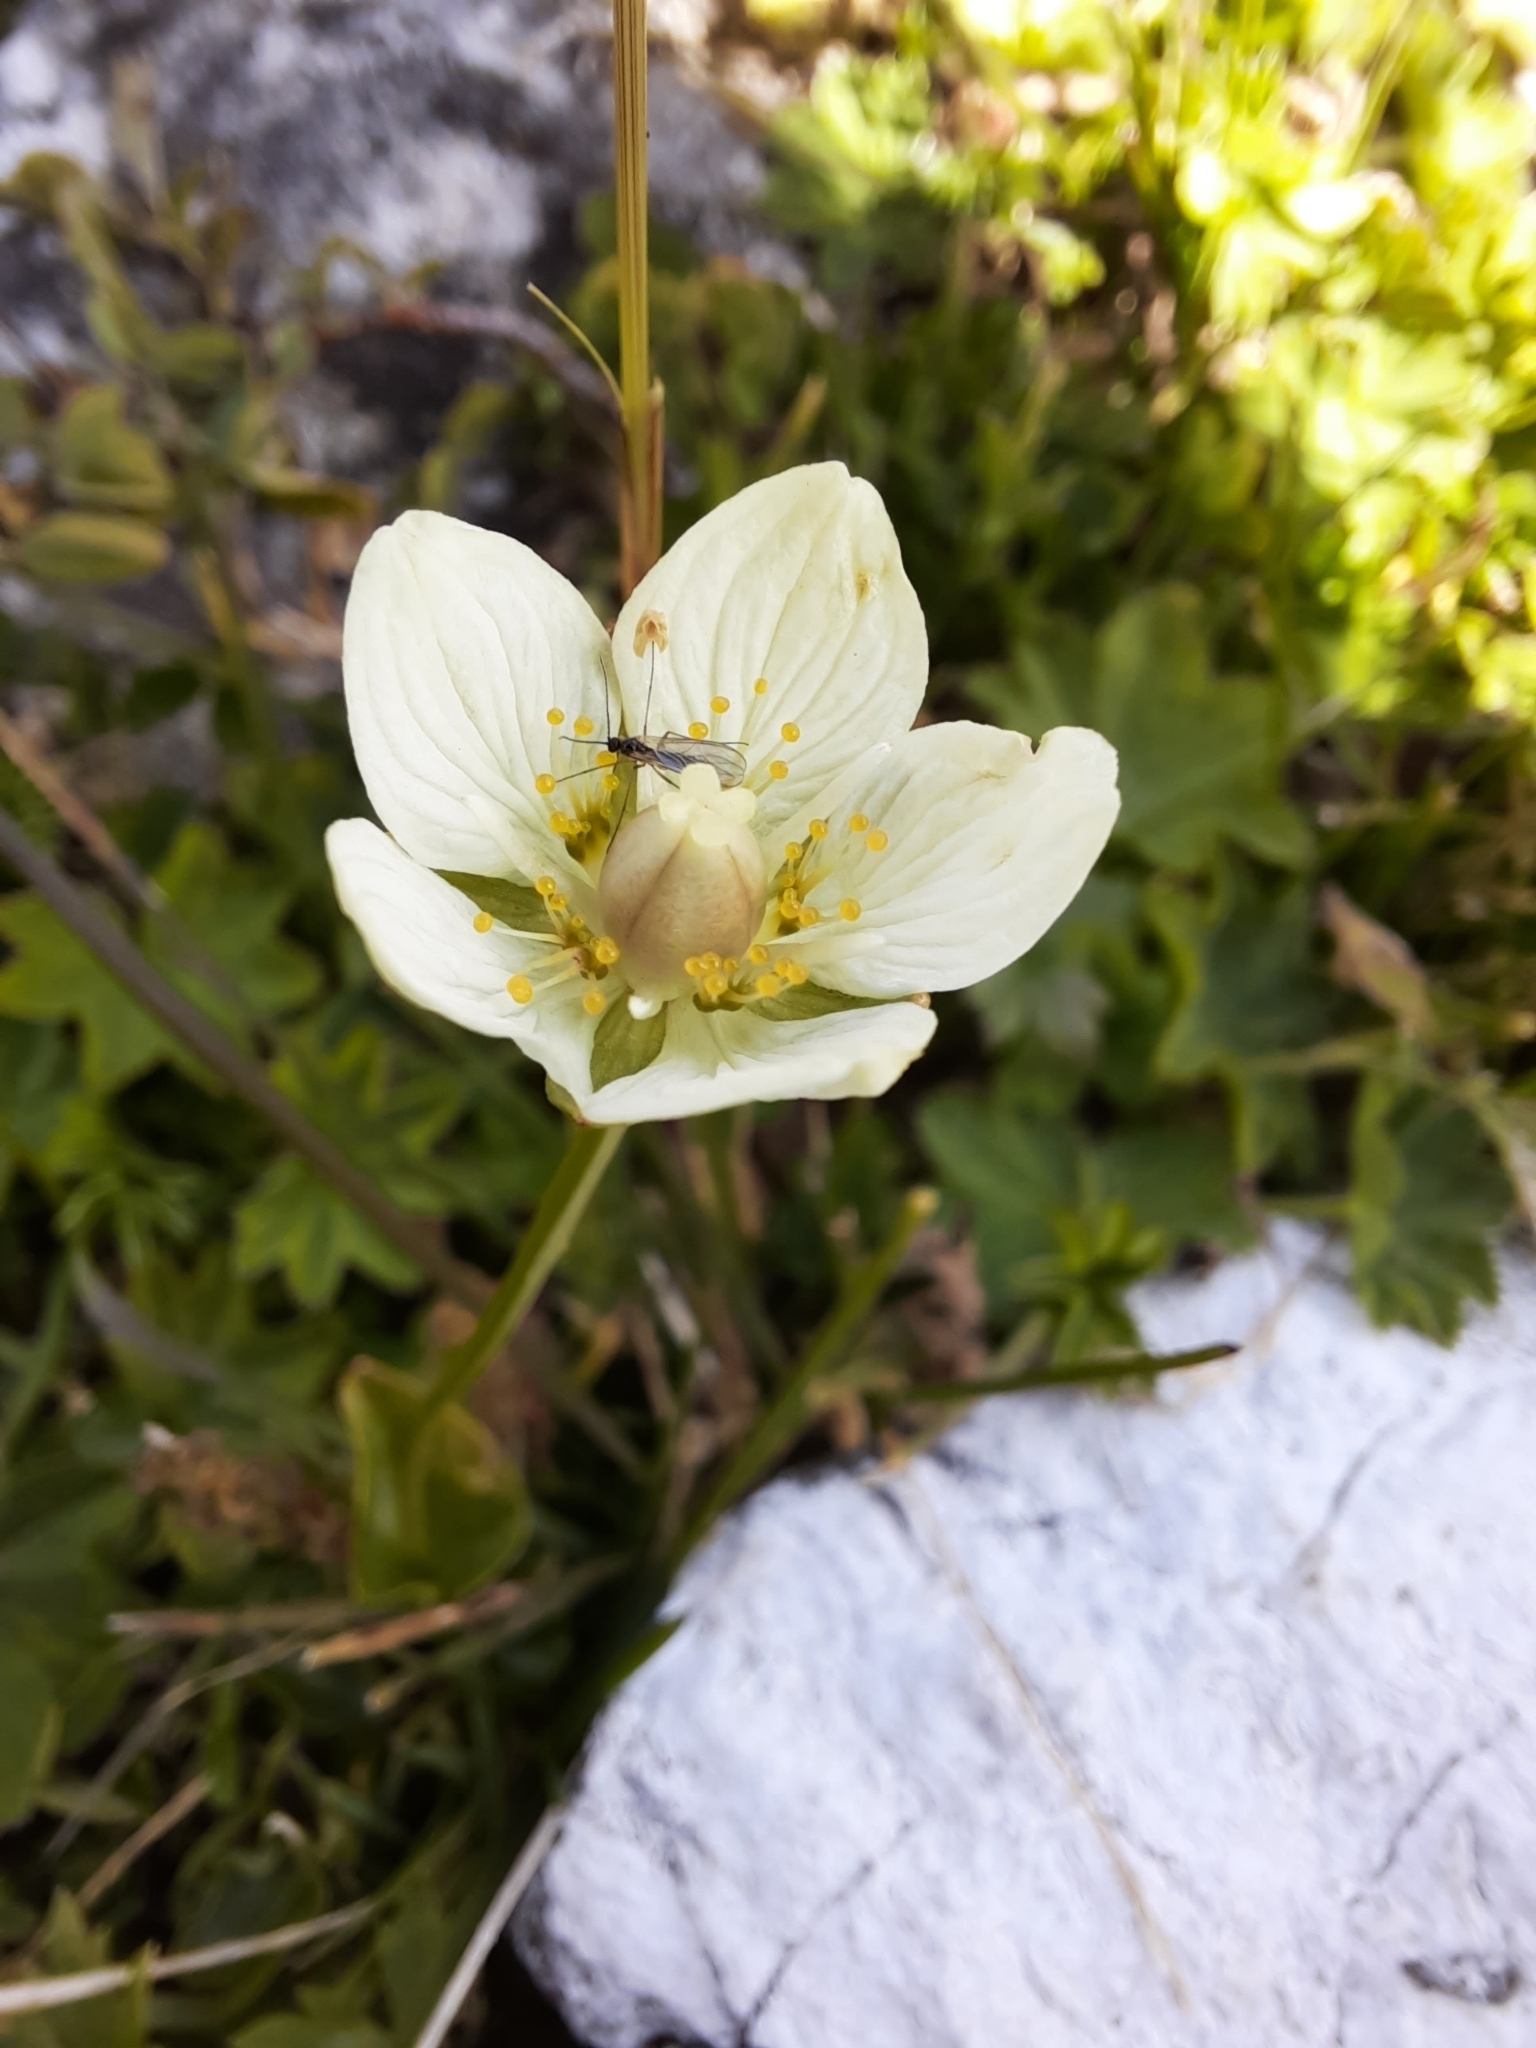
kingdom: Plantae
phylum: Tracheophyta
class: Magnoliopsida
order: Celastrales
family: Parnassiaceae
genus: Parnassia
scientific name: Parnassia palustris
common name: Grass-of-parnassus
